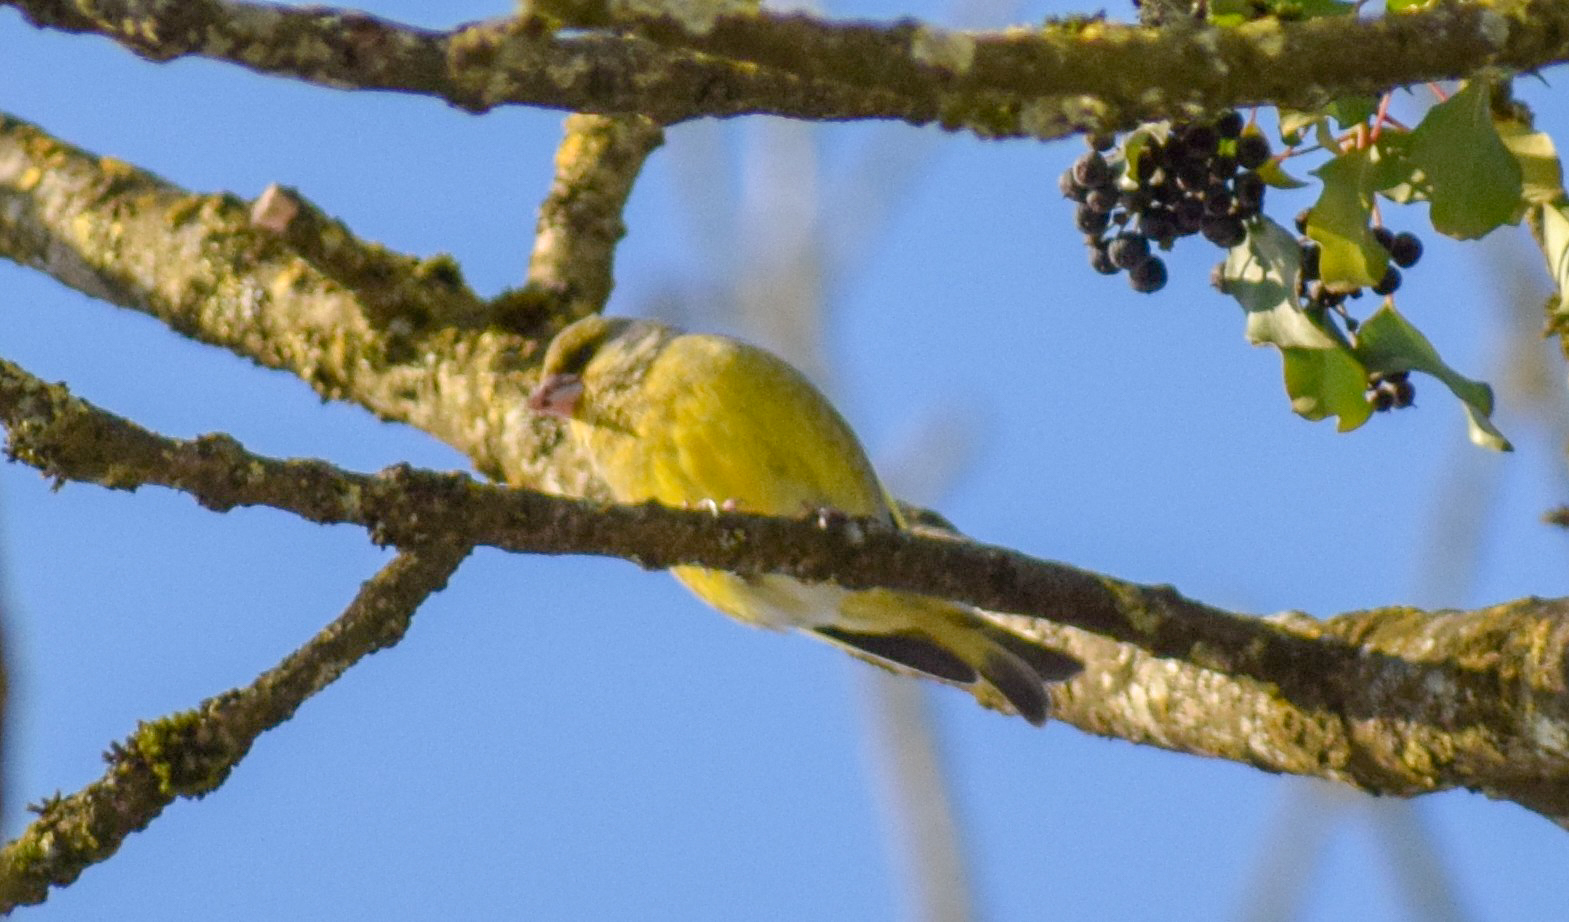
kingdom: Plantae
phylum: Tracheophyta
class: Liliopsida
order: Poales
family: Poaceae
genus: Chloris
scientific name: Chloris chloris
